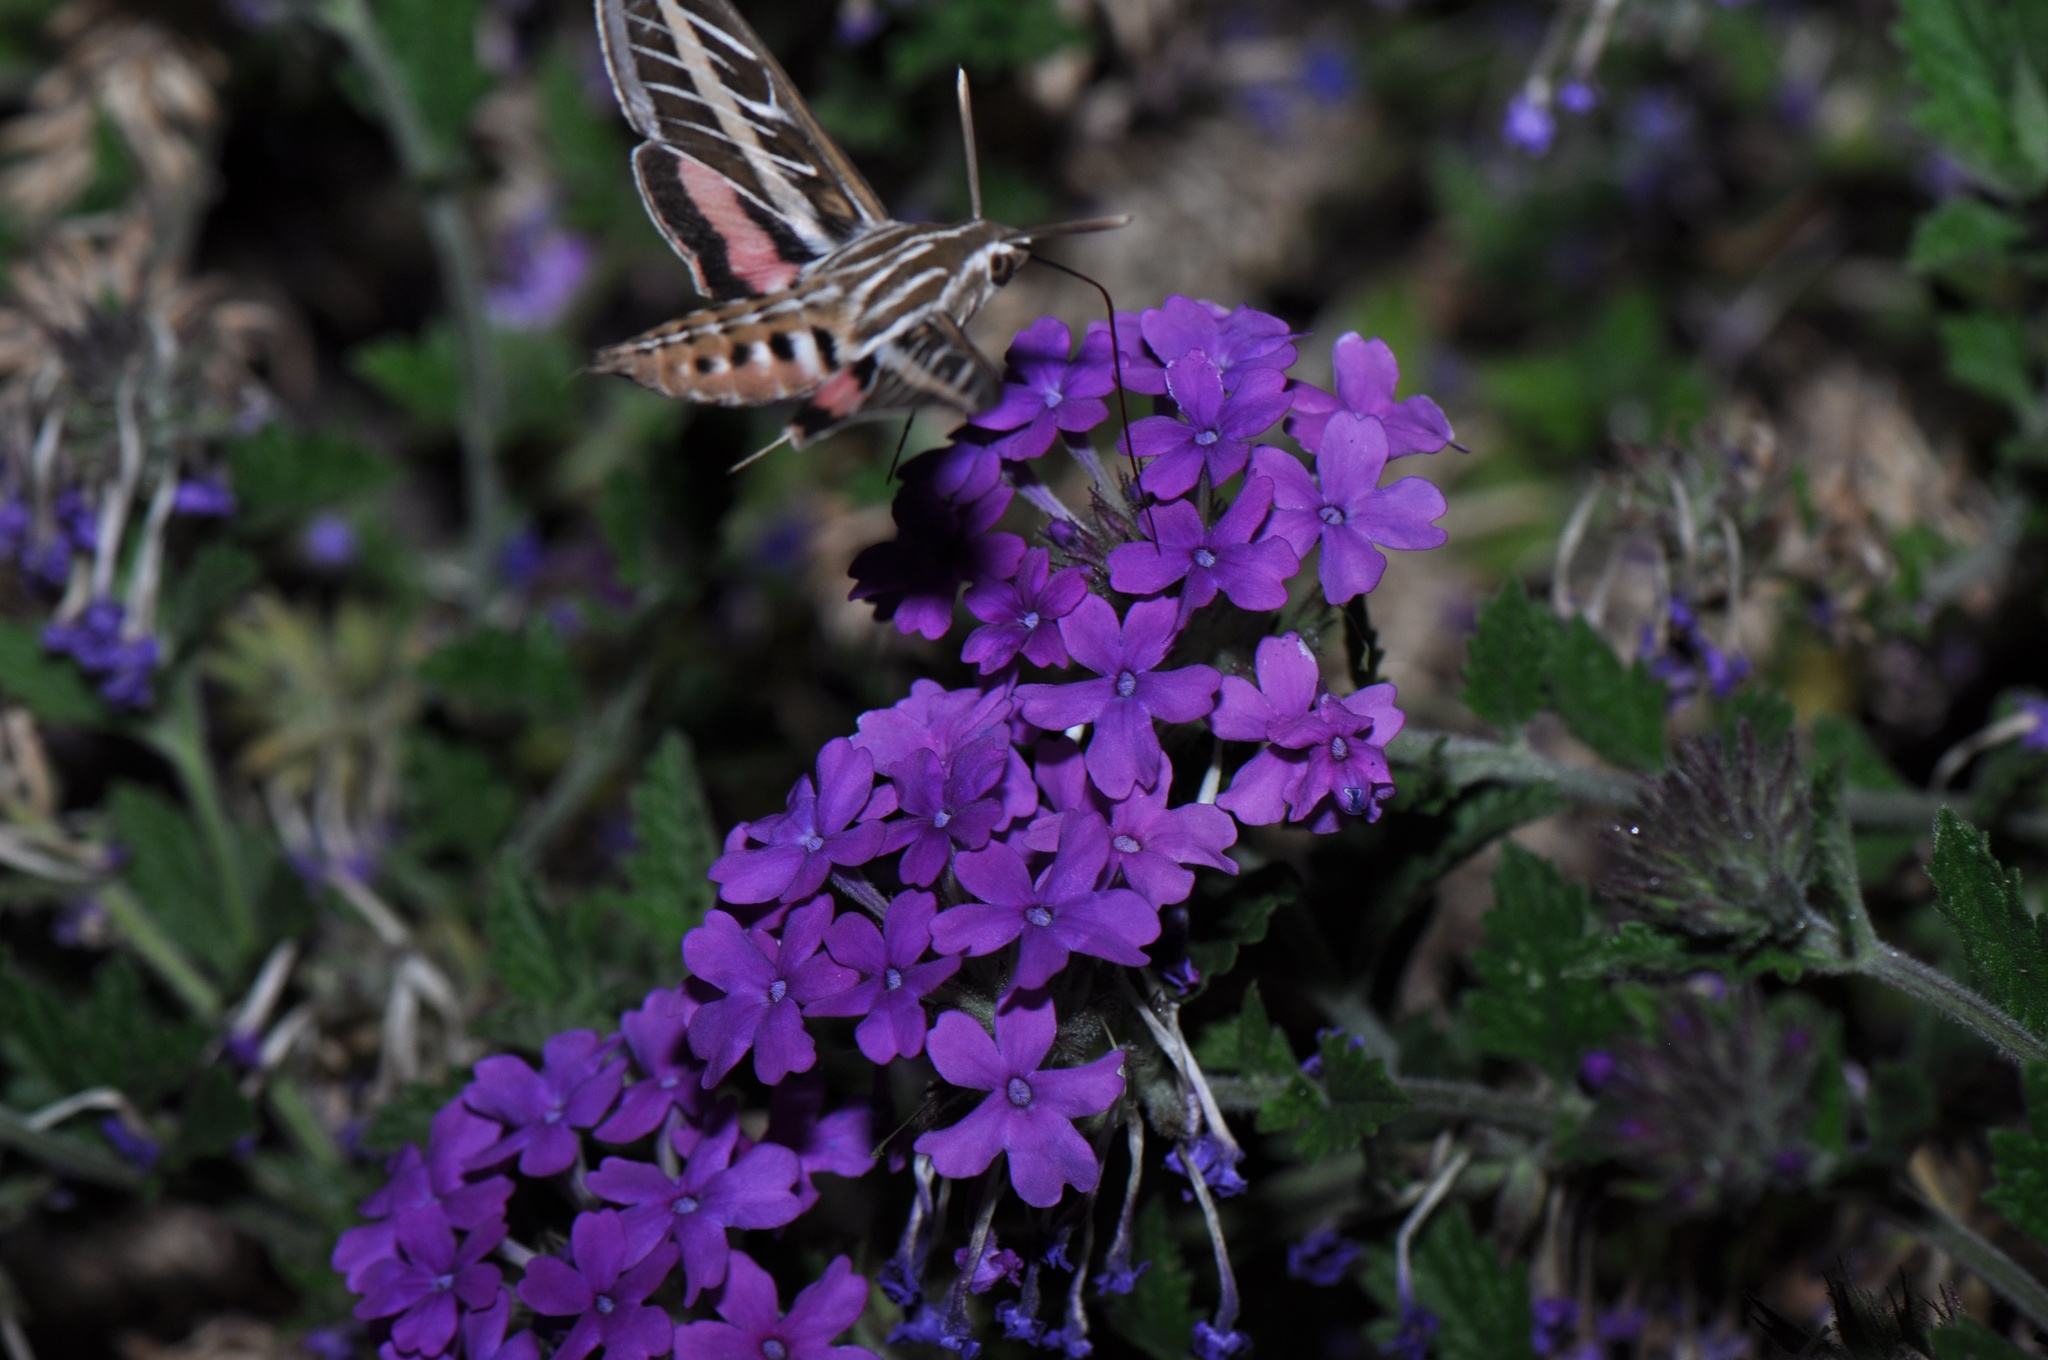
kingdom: Animalia
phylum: Arthropoda
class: Insecta
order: Lepidoptera
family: Sphingidae
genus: Hyles
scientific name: Hyles lineata
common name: White-lined sphinx
